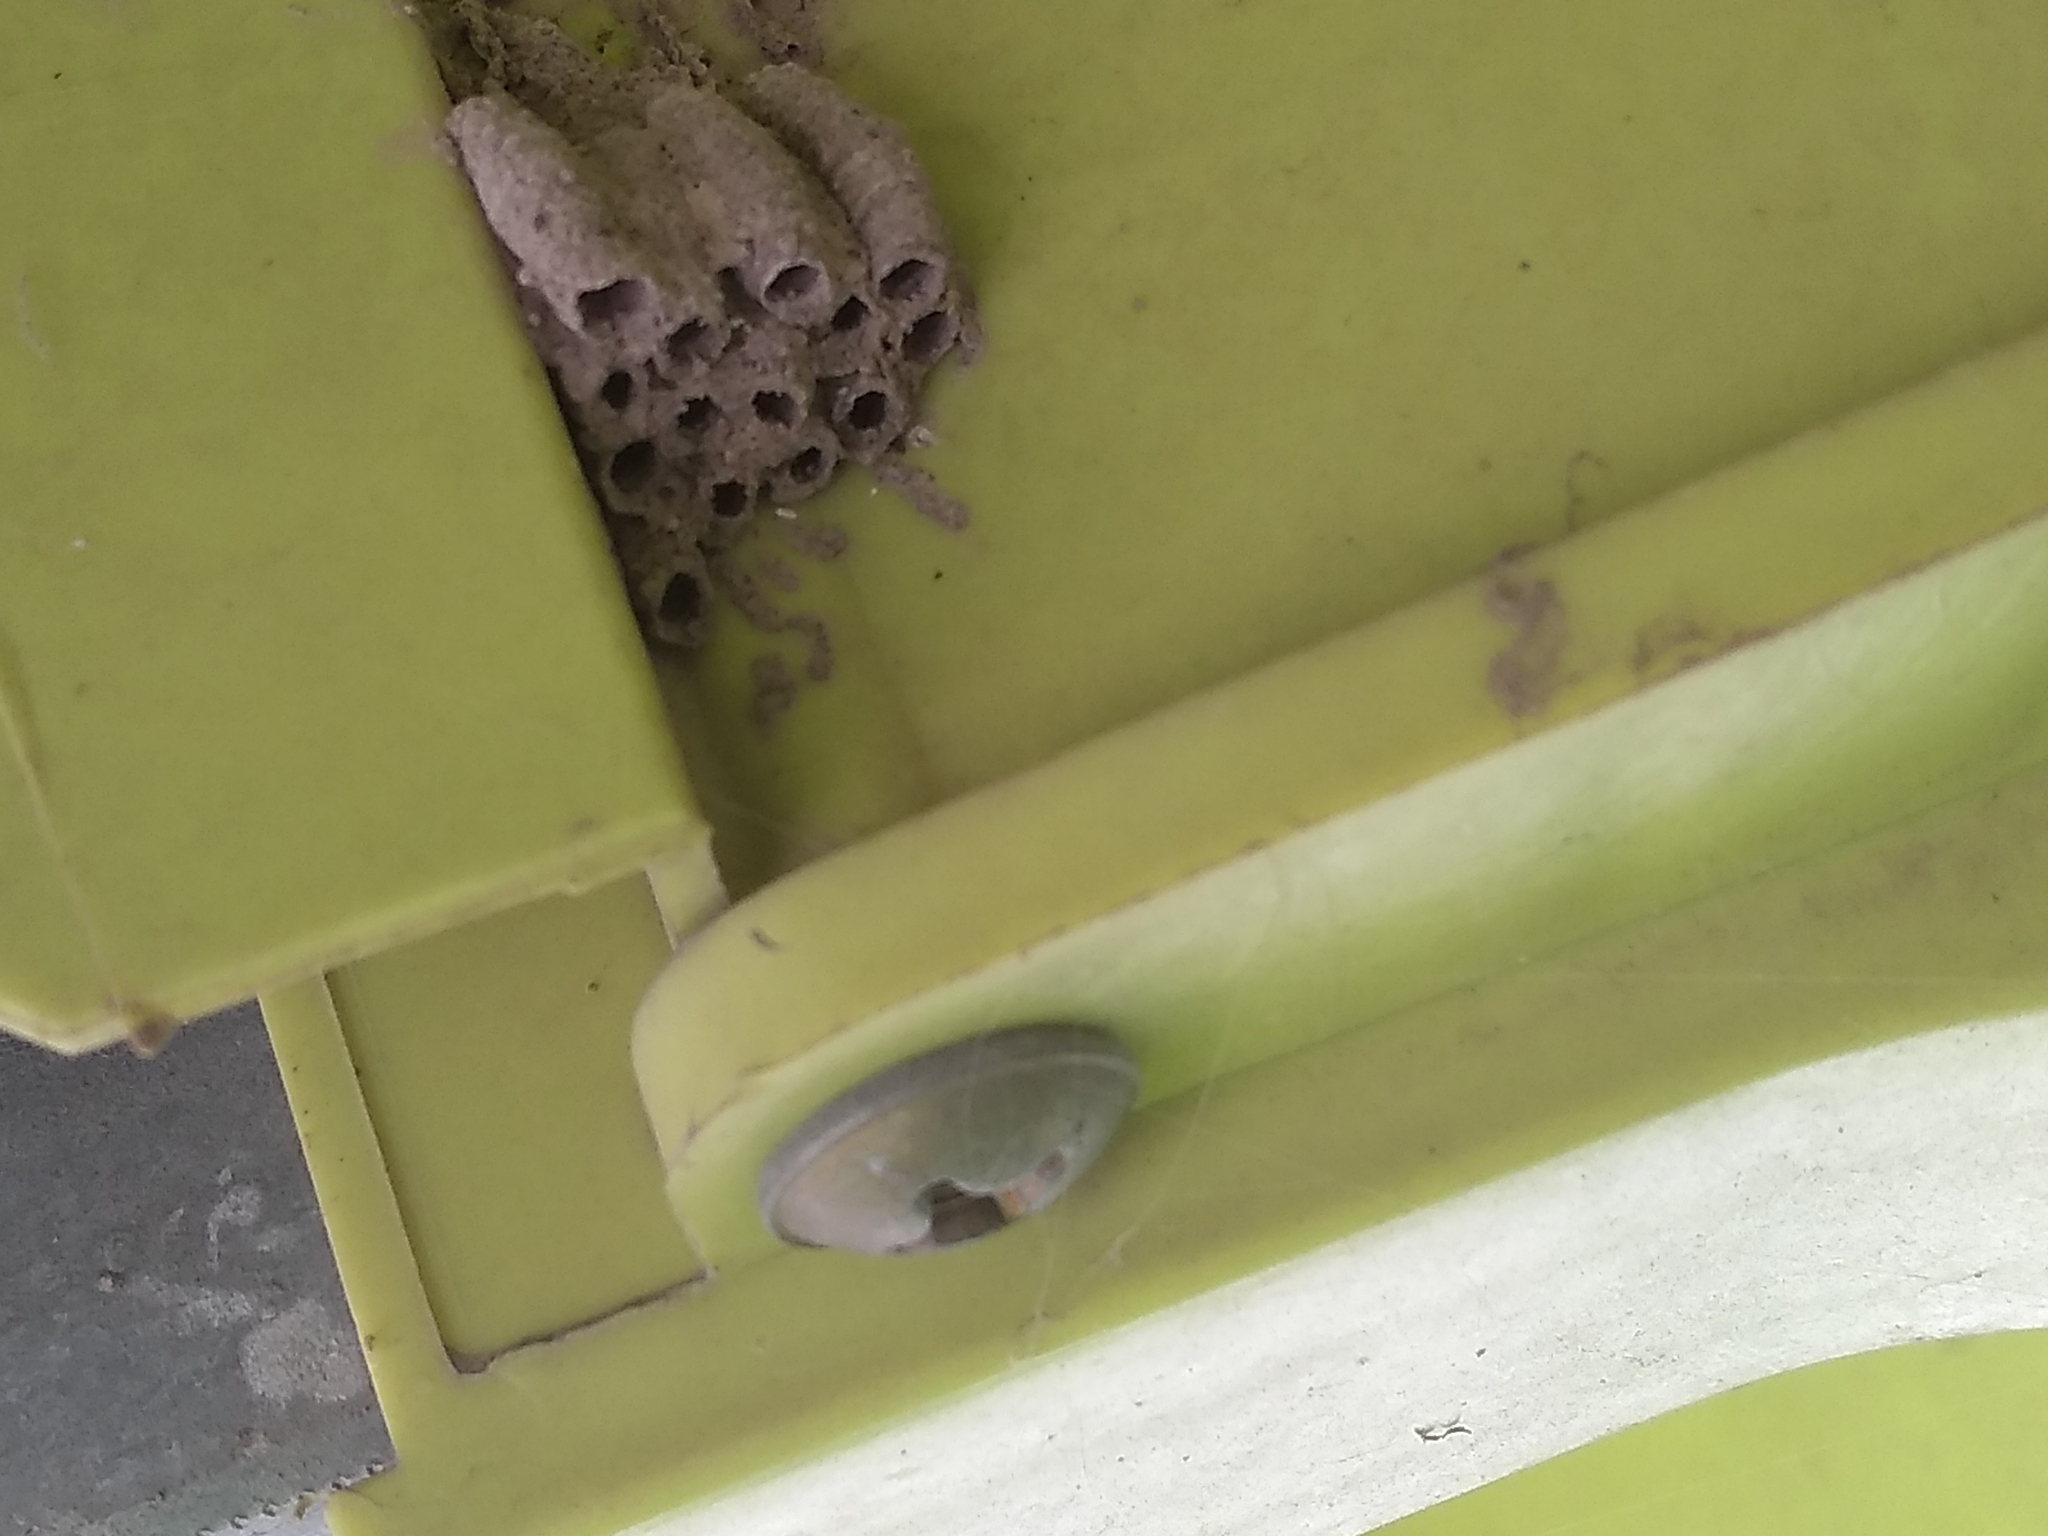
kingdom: Animalia
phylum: Arthropoda
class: Insecta
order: Hymenoptera
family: Sphecidae
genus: Sceliphron
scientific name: Sceliphron
